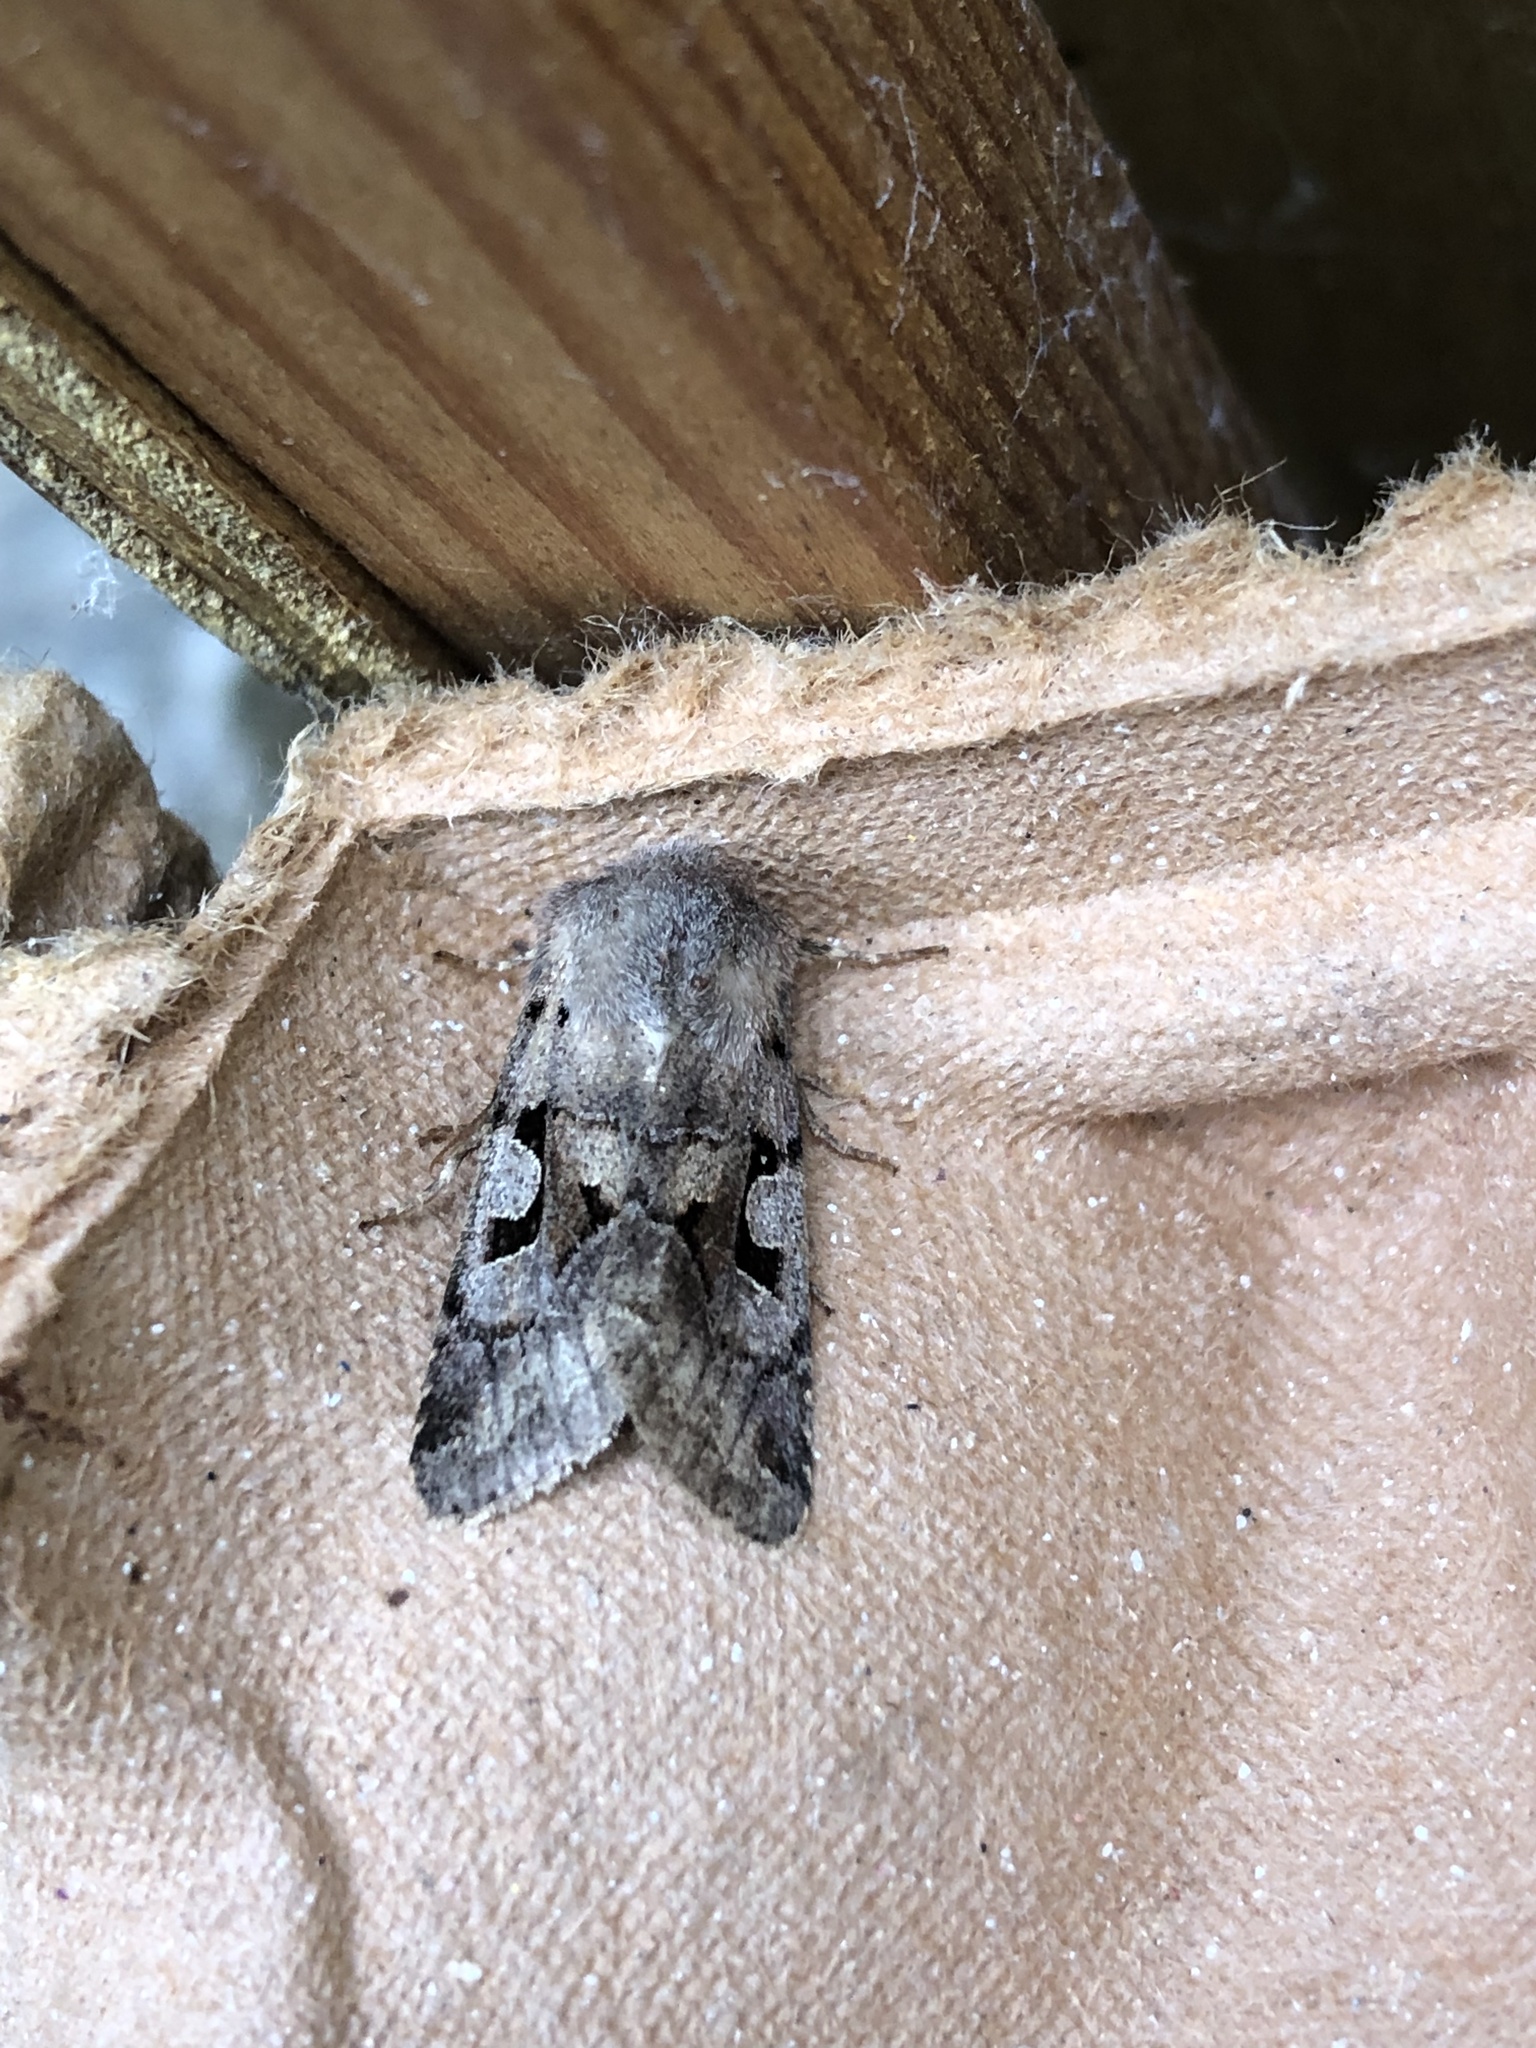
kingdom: Animalia
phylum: Arthropoda
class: Insecta
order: Lepidoptera
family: Noctuidae
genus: Orthosia
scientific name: Orthosia gothica
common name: Hebrew character
